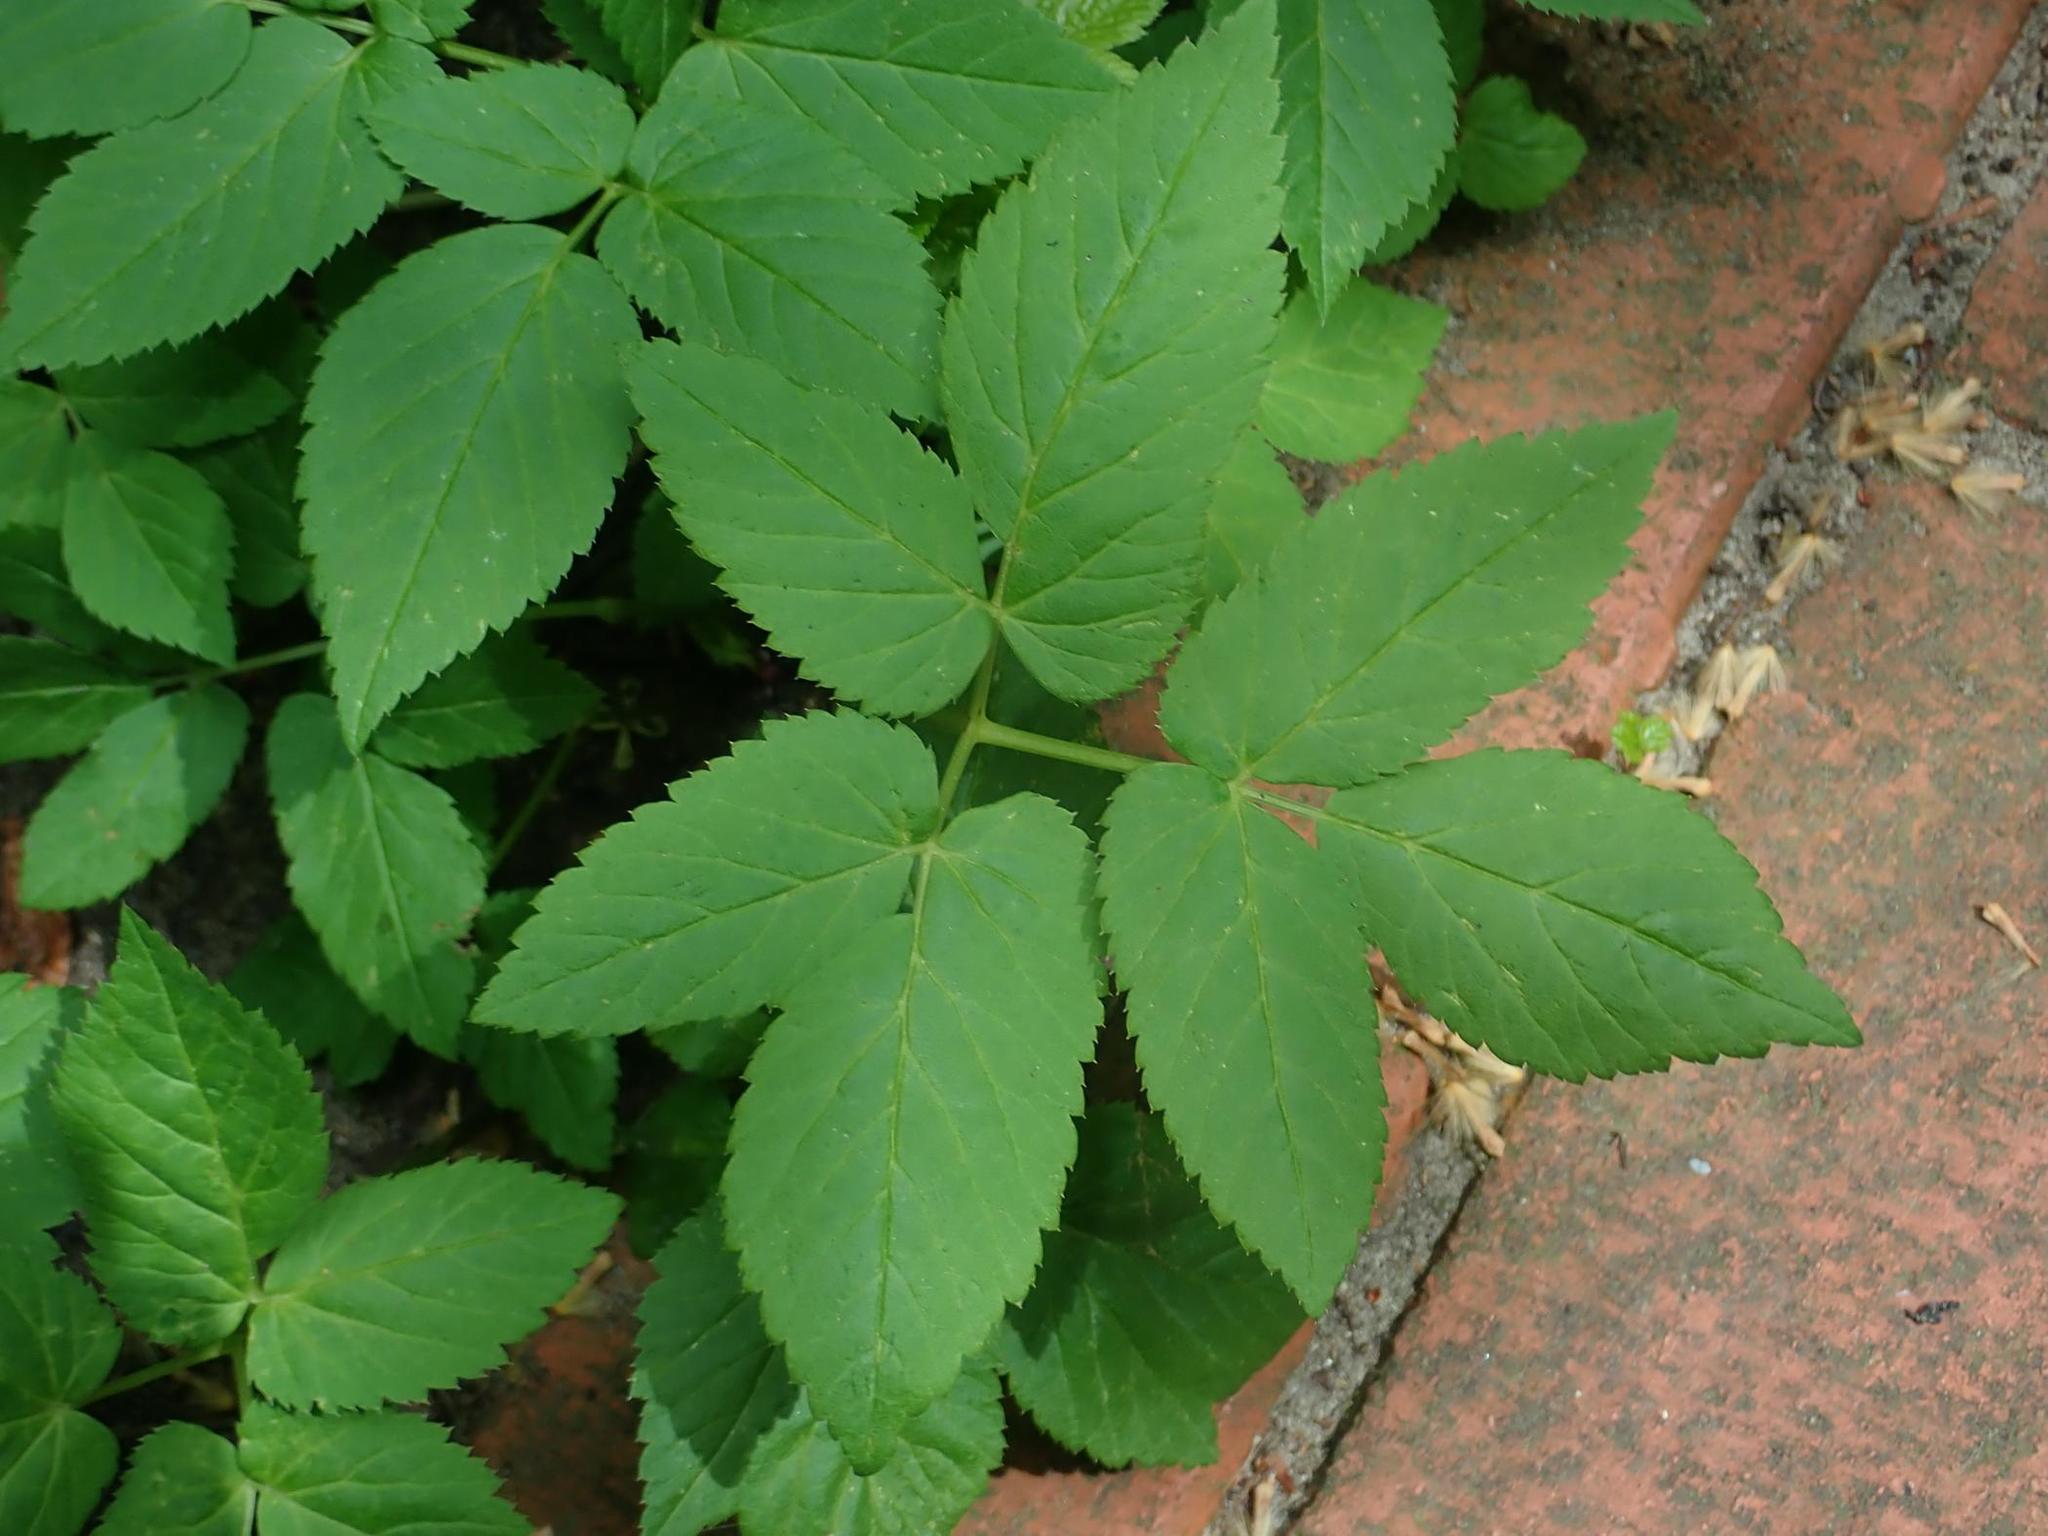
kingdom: Plantae
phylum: Tracheophyta
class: Magnoliopsida
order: Apiales
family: Apiaceae
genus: Aegopodium
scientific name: Aegopodium podagraria
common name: Ground-elder
